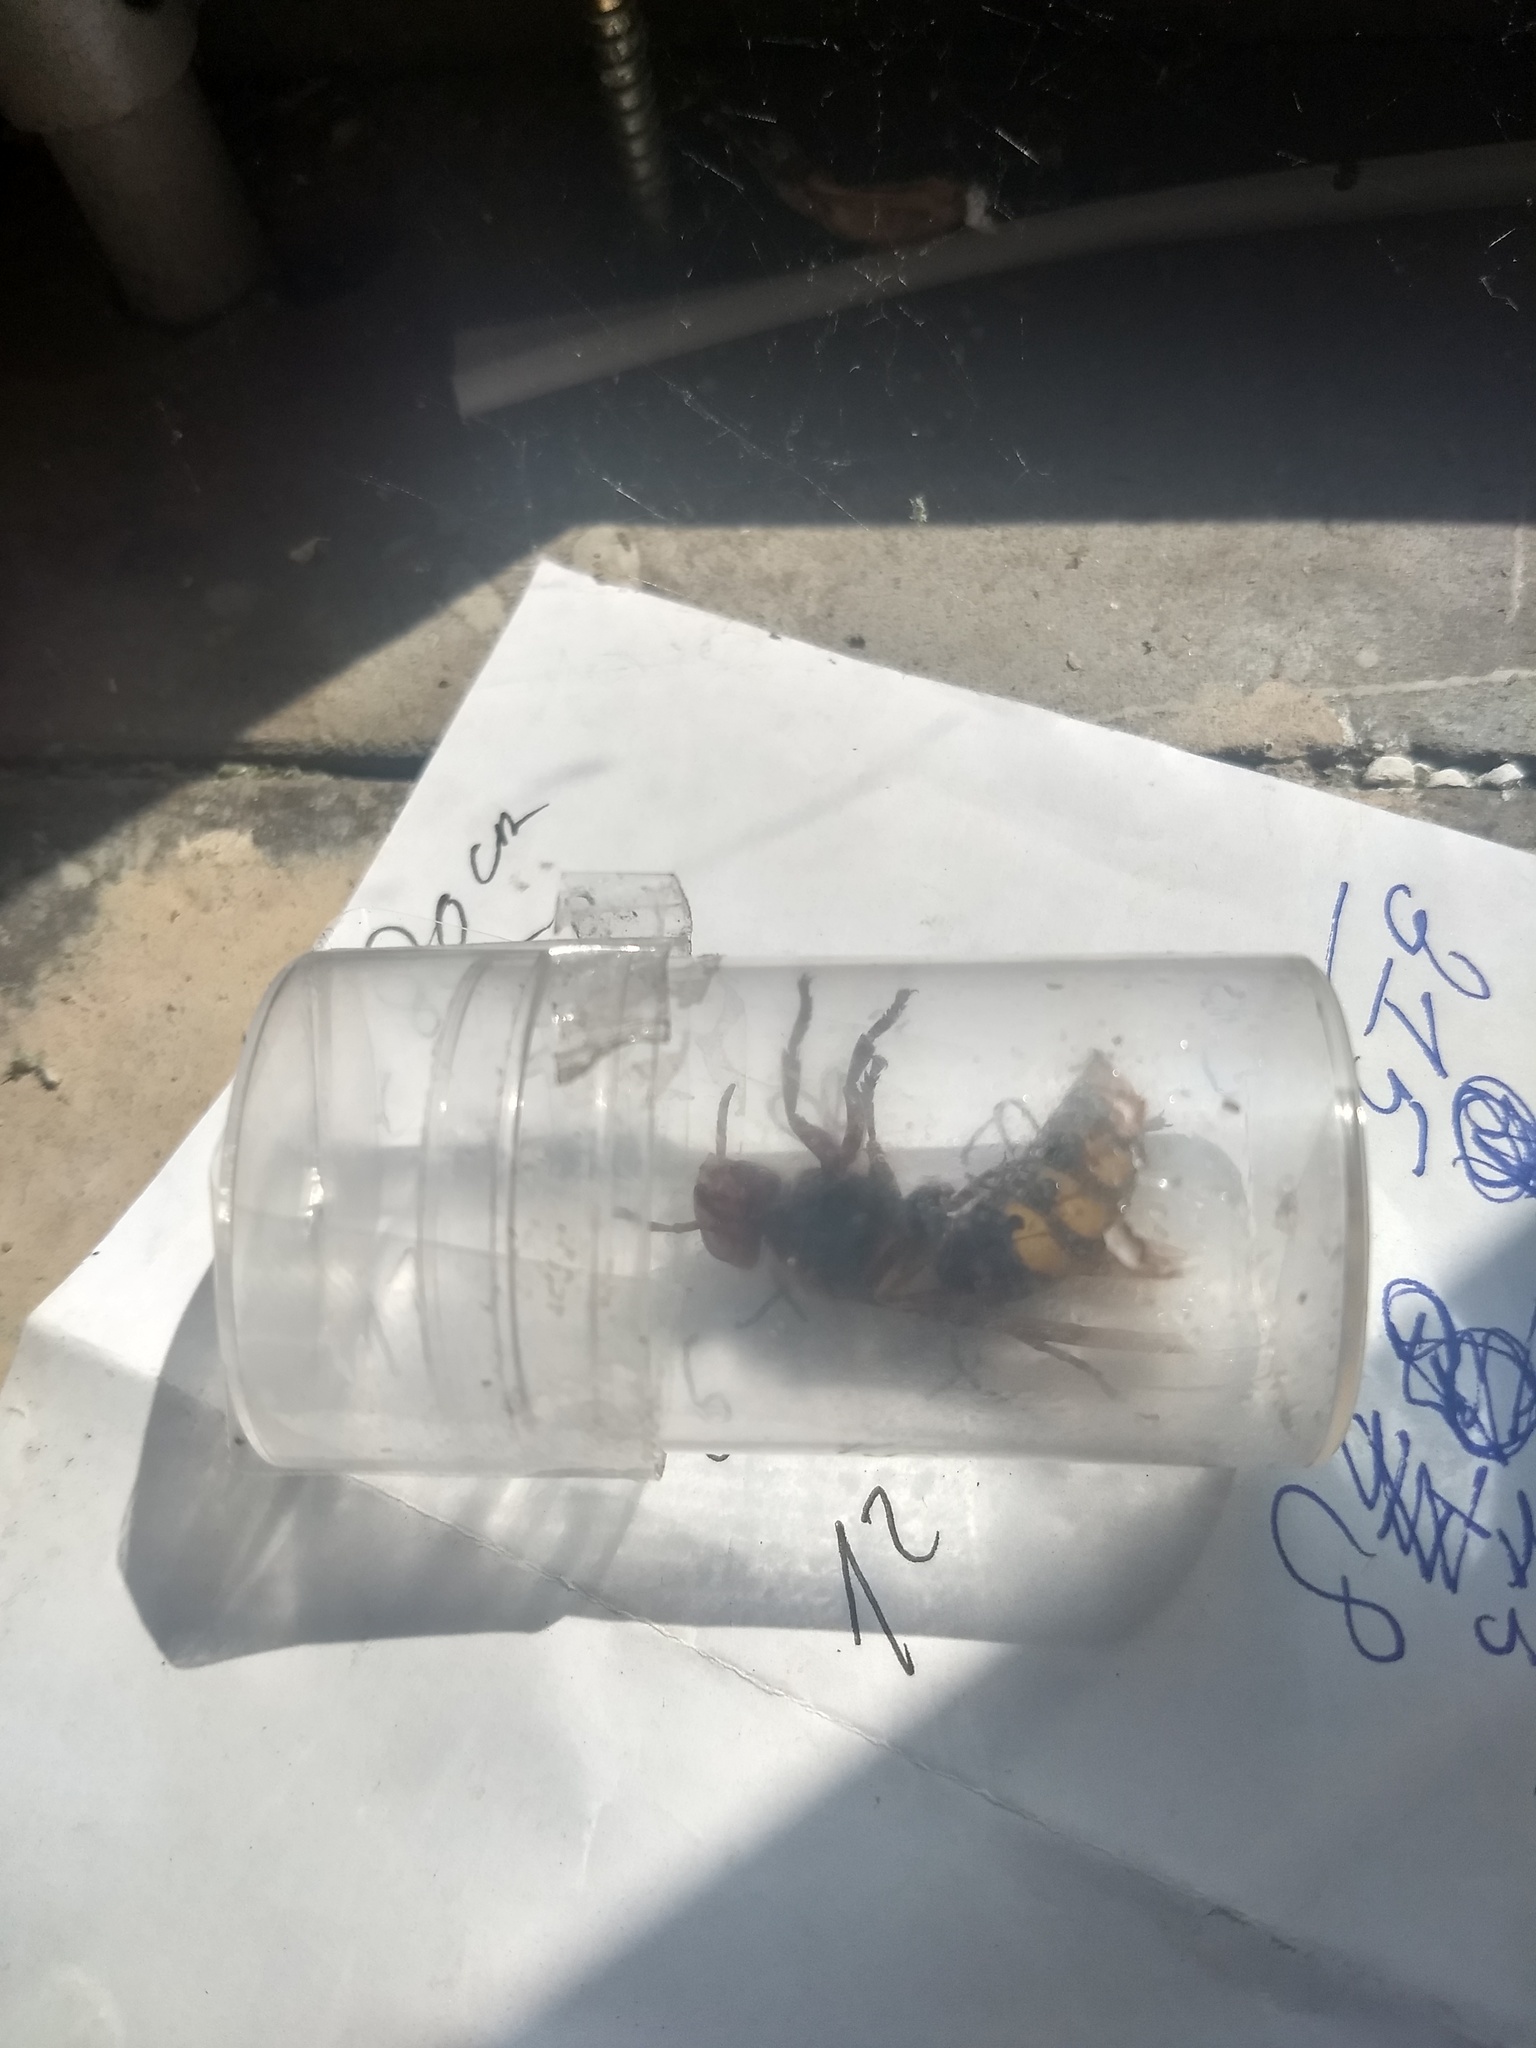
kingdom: Animalia
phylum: Arthropoda
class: Insecta
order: Hymenoptera
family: Vespidae
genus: Vespa
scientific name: Vespa crabro
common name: Hornet
